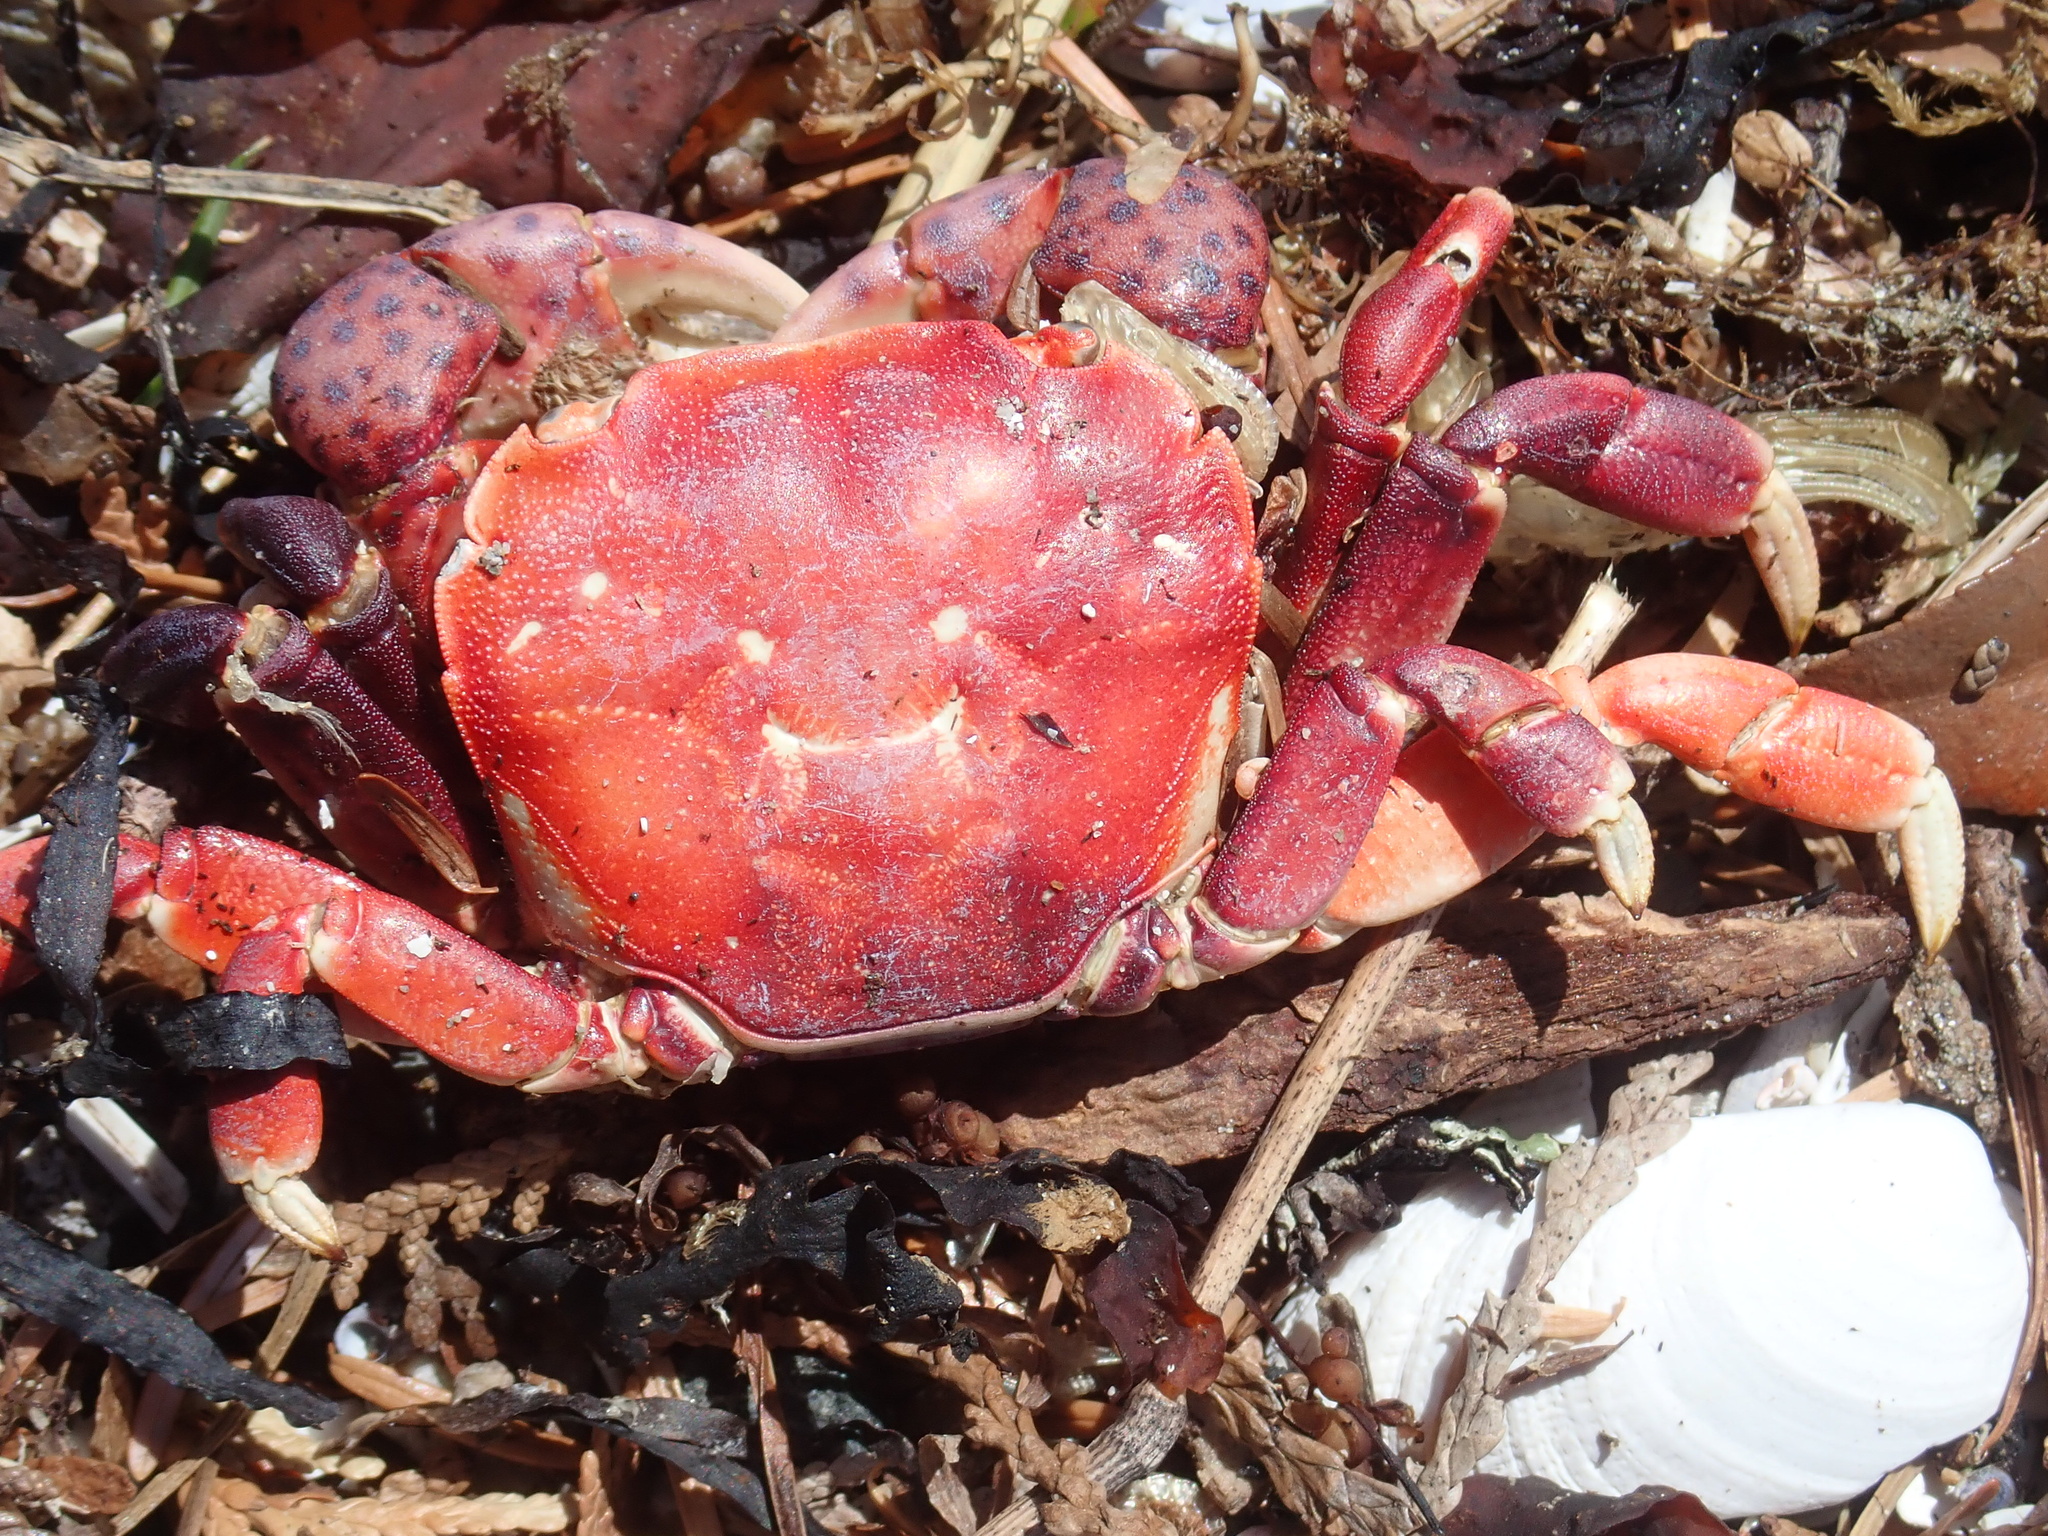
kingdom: Animalia
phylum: Arthropoda
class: Malacostraca
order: Decapoda
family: Varunidae
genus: Hemigrapsus
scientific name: Hemigrapsus nudus
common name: Purple shore crab
